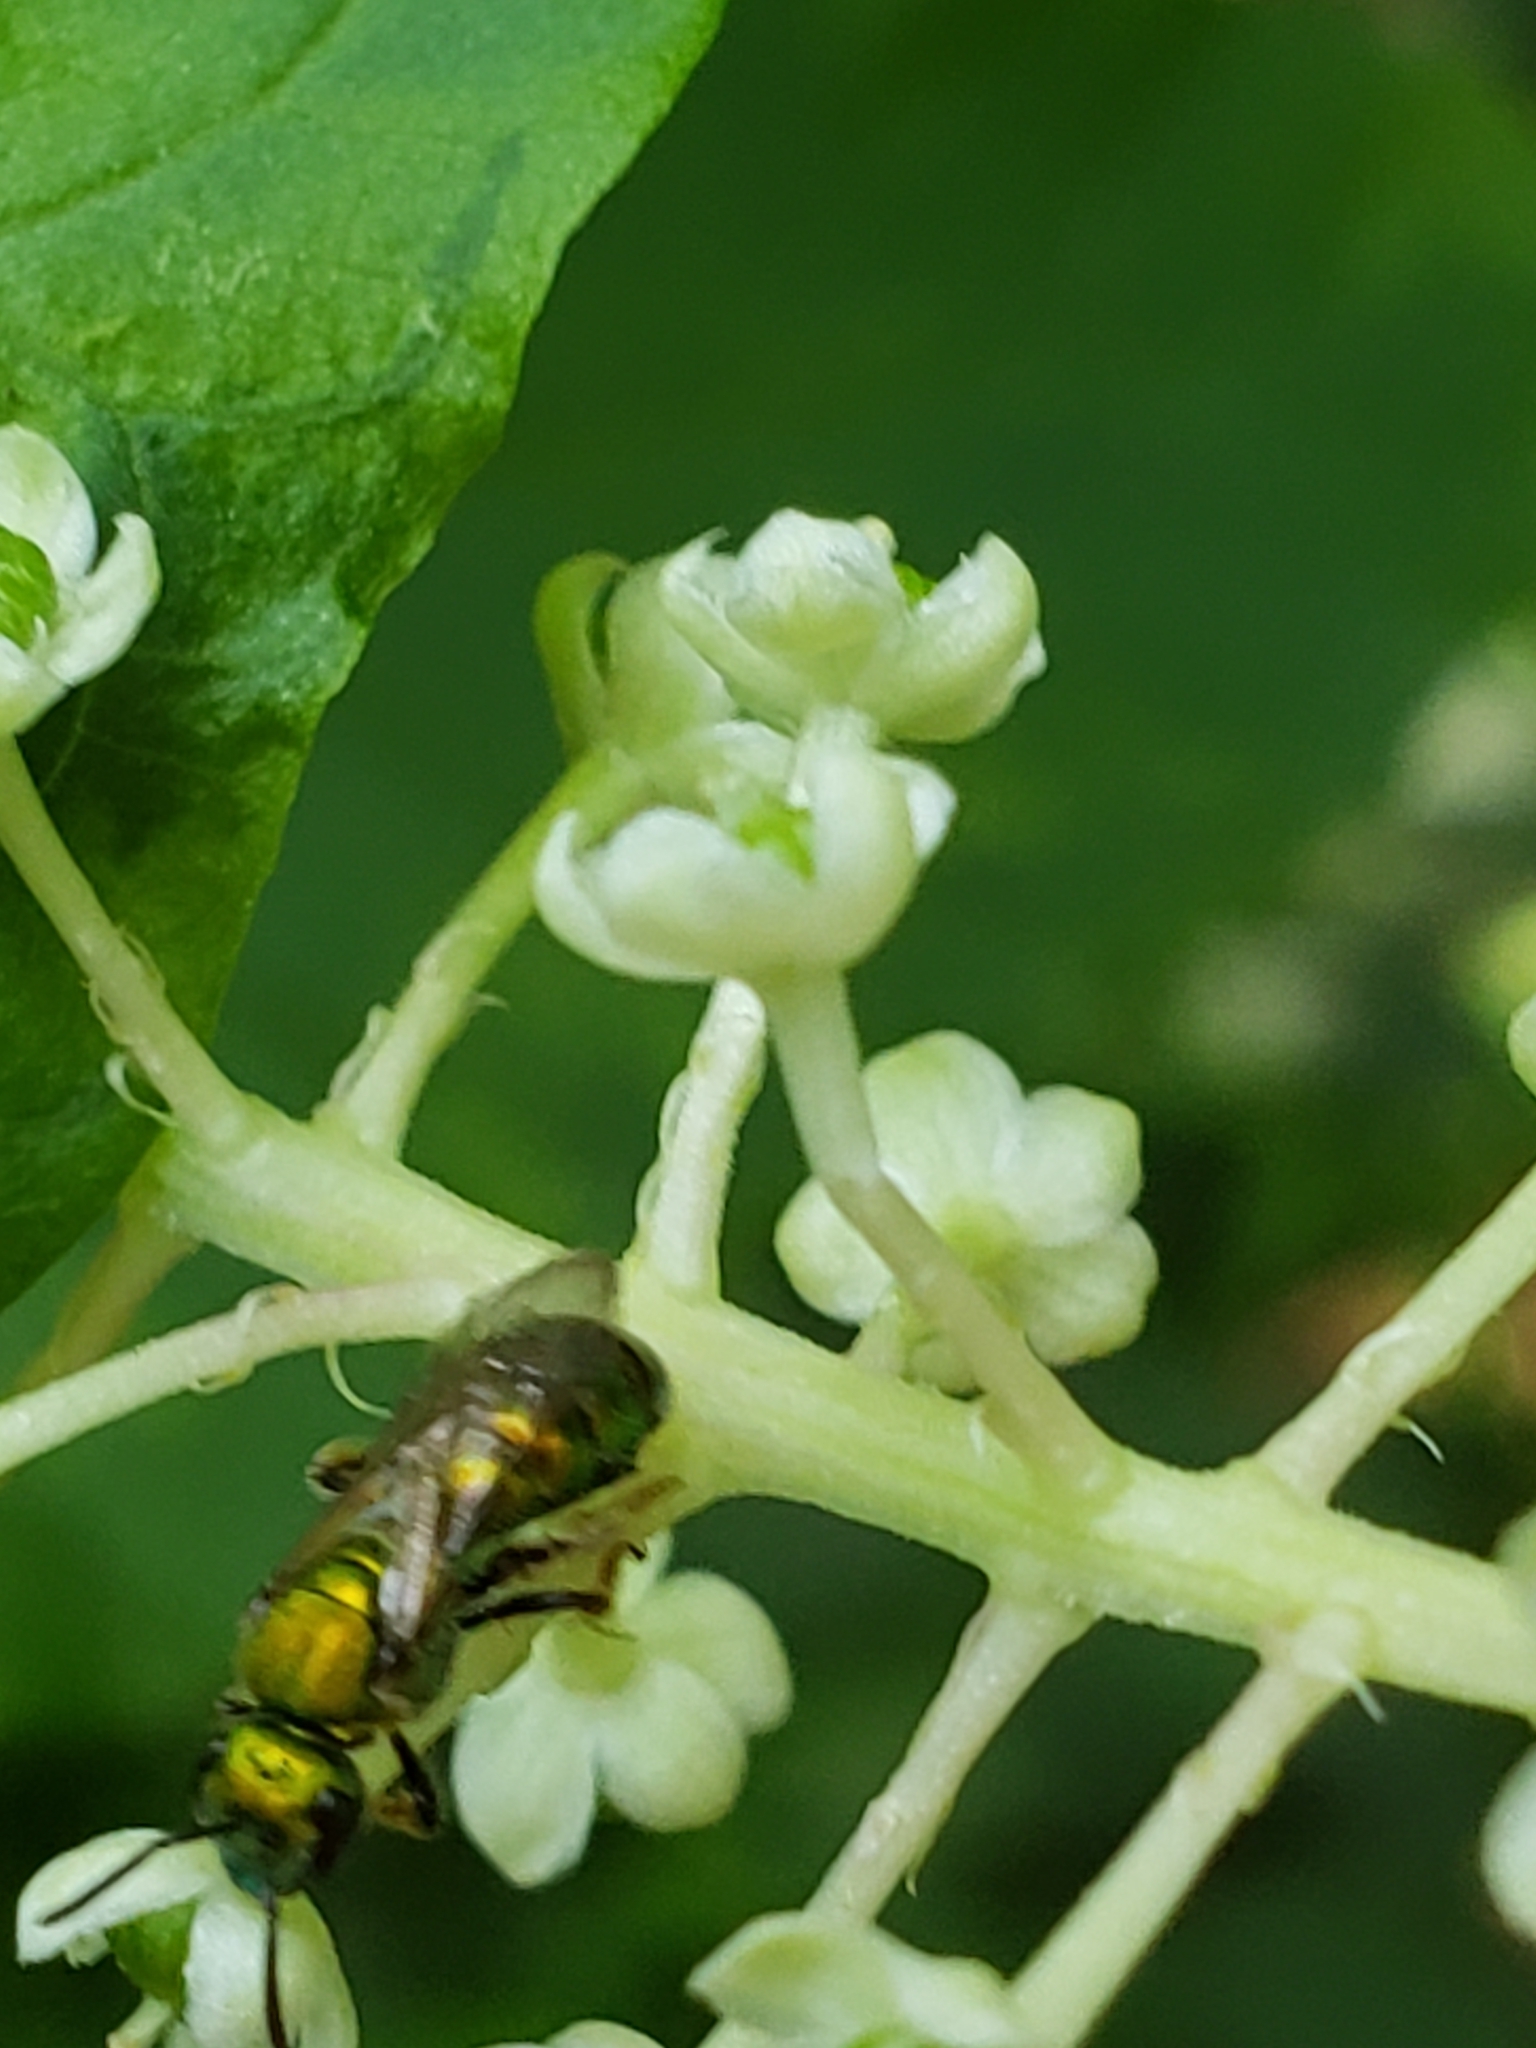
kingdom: Animalia
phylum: Arthropoda
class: Insecta
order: Hymenoptera
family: Halictidae
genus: Augochlora
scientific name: Augochlora pura
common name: Pure green sweat bee
